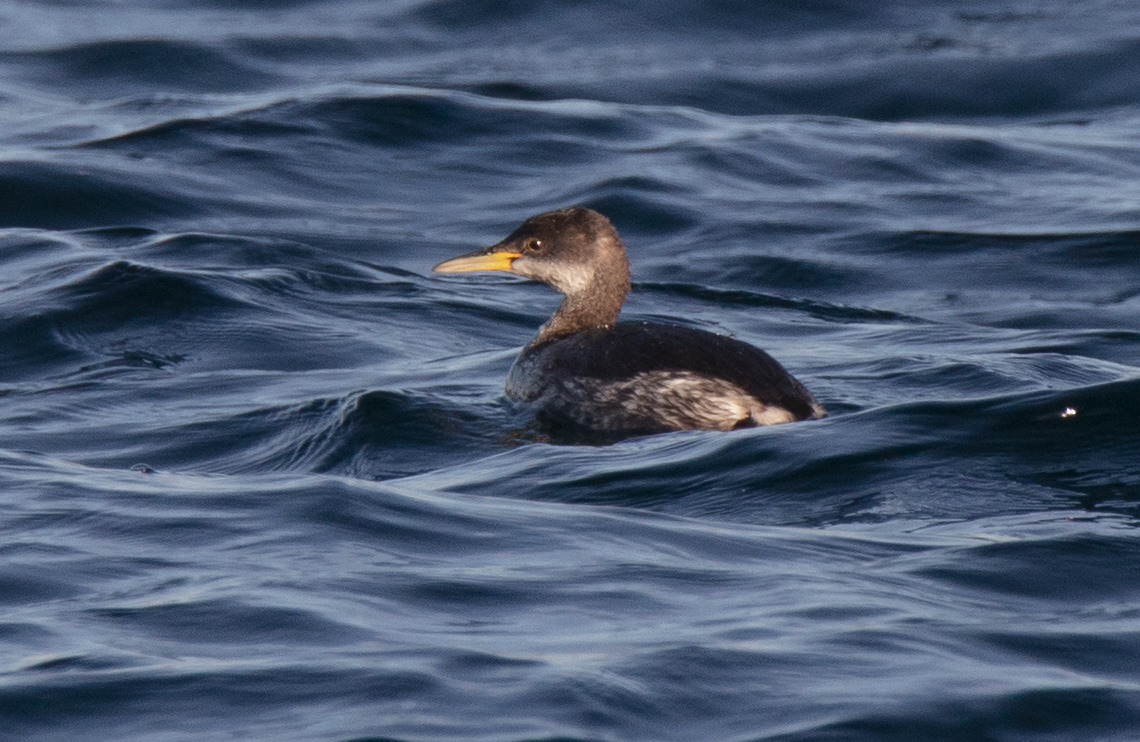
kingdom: Animalia
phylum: Chordata
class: Aves
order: Podicipediformes
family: Podicipedidae
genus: Podiceps
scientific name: Podiceps grisegena
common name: Red-necked grebe
